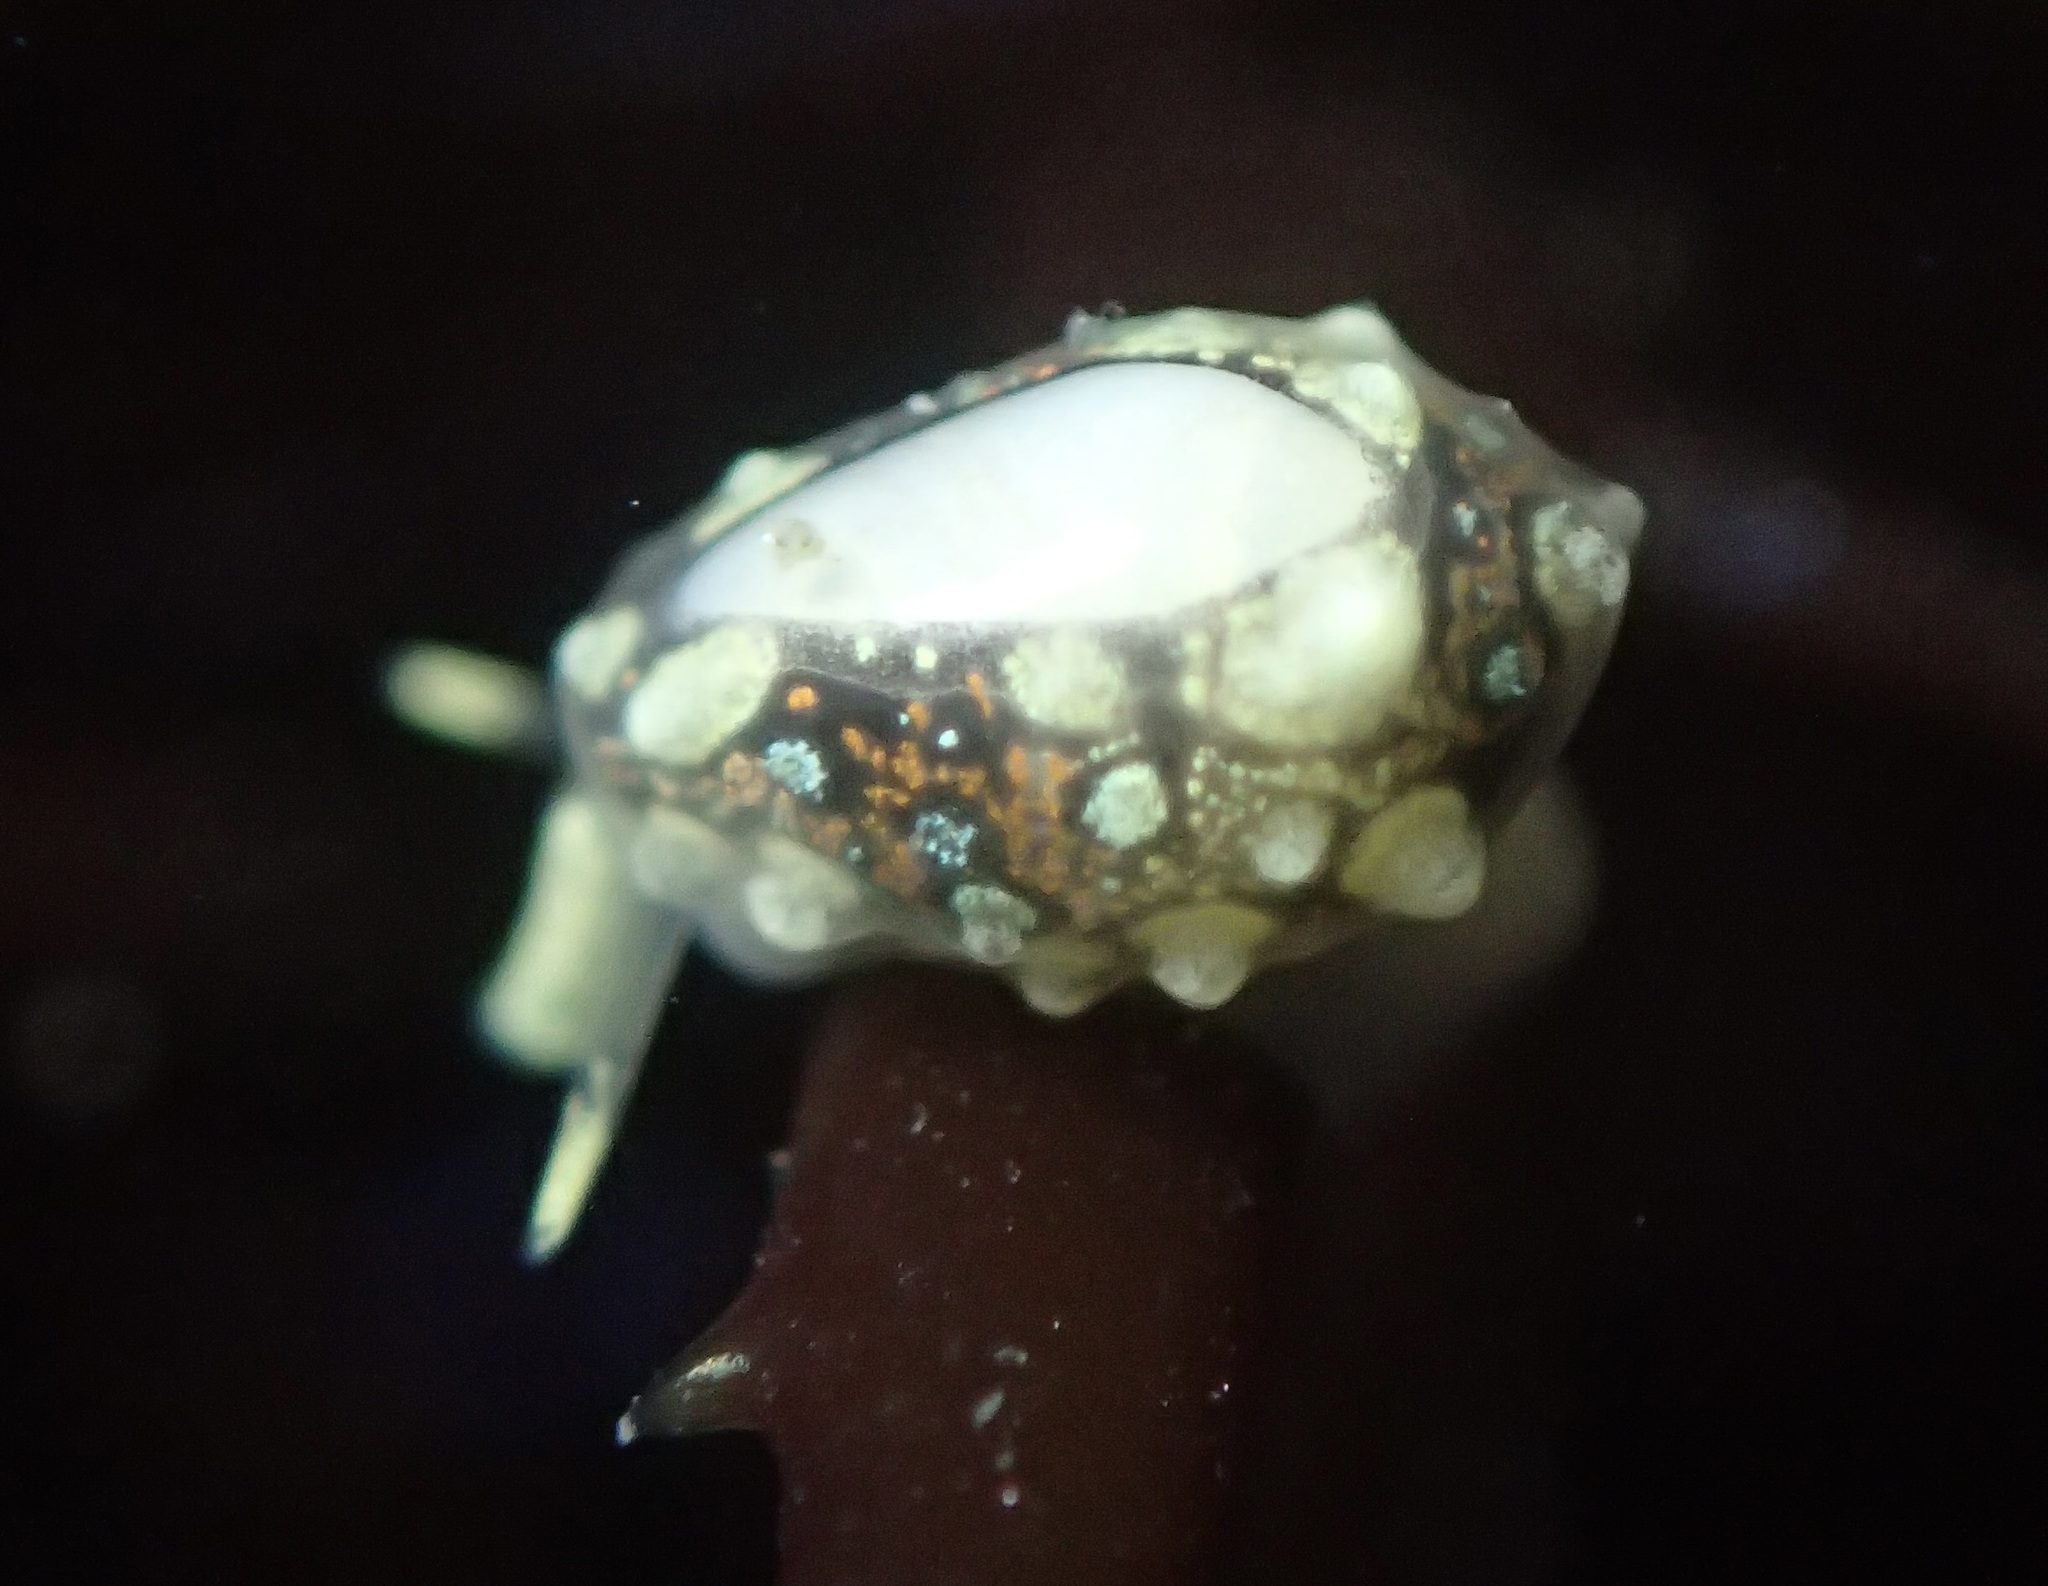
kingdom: Animalia
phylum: Mollusca
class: Gastropoda
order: Neogastropoda
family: Granulinidae
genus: Granulina
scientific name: Granulina margaritula
